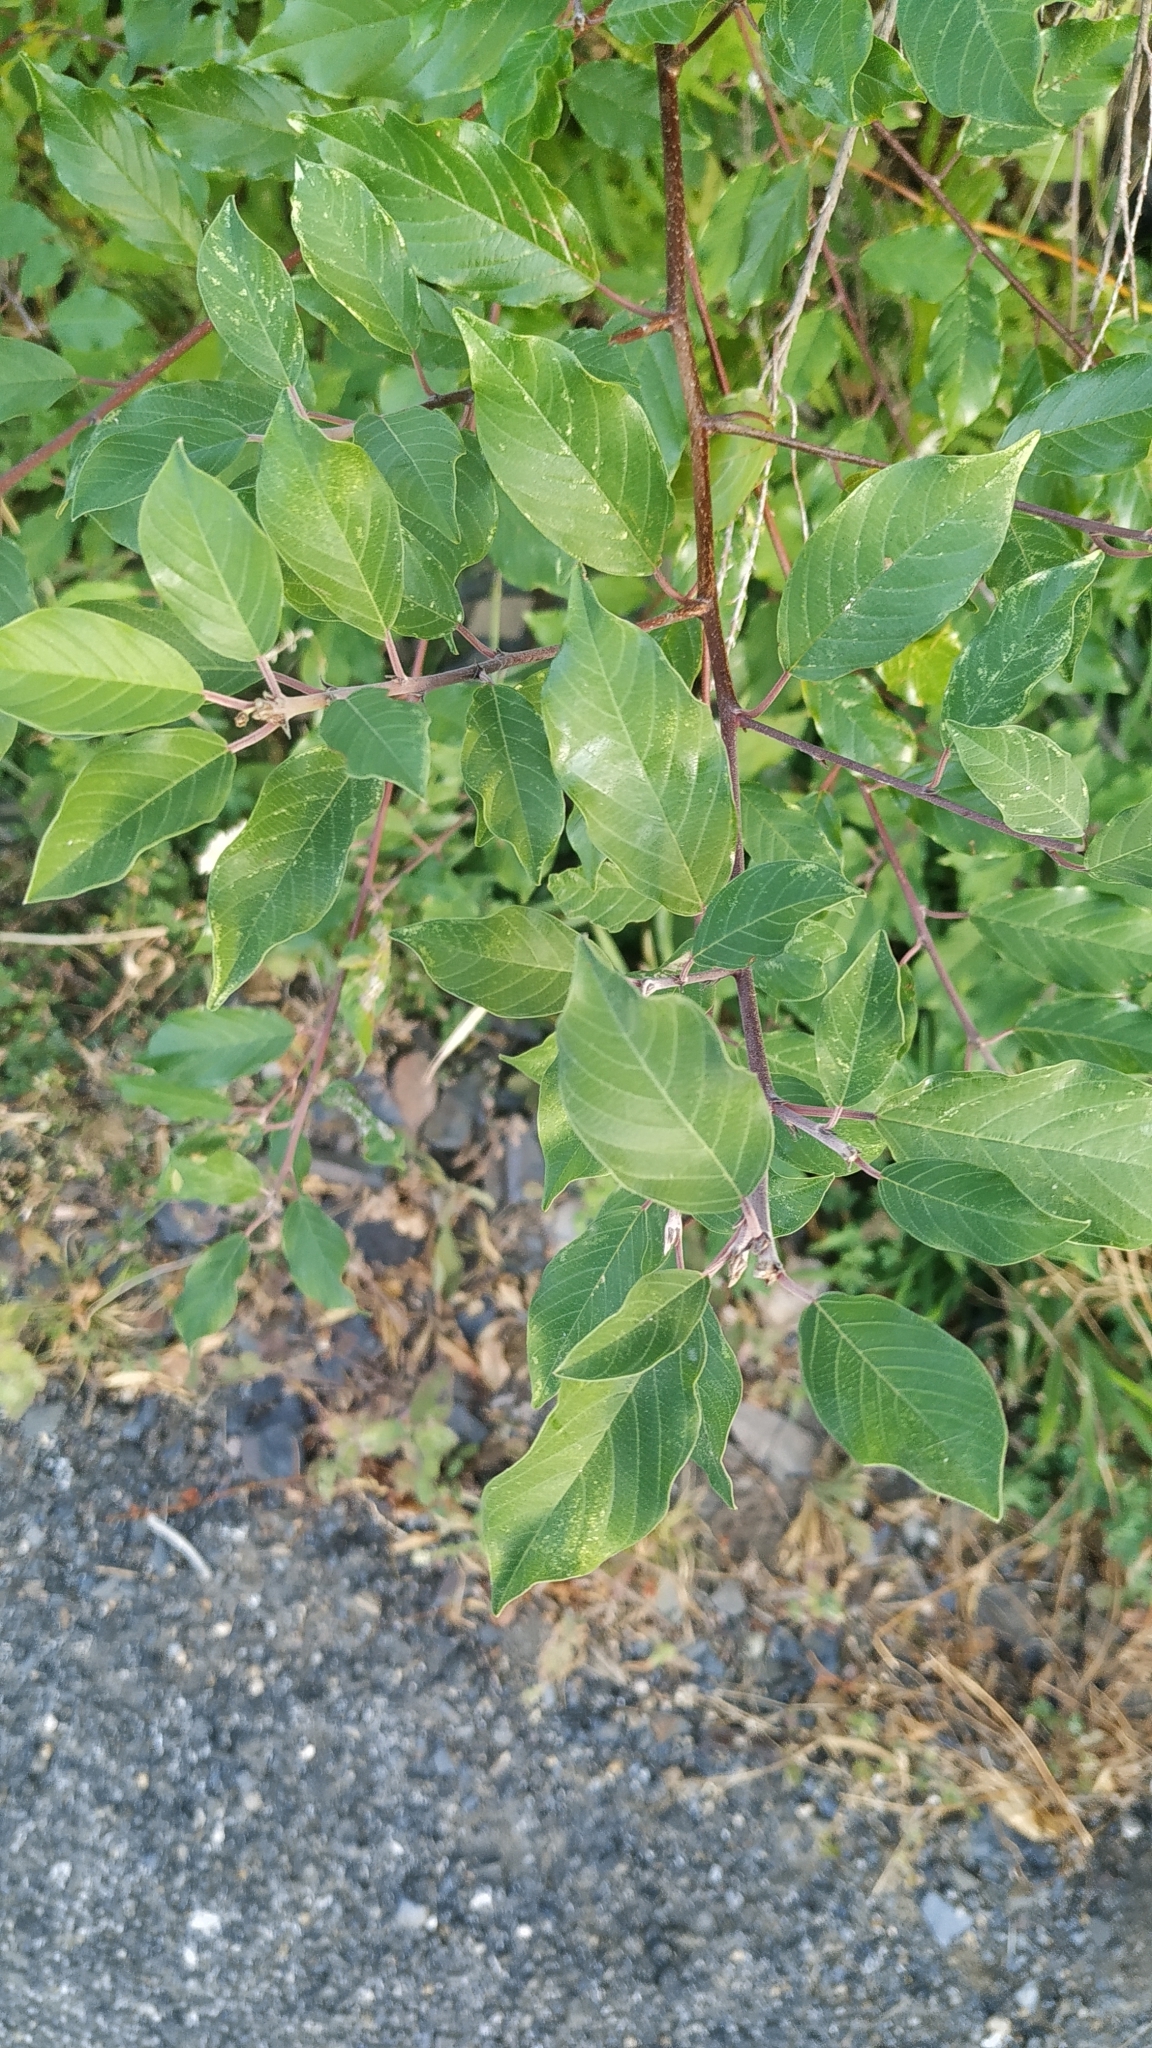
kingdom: Plantae
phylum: Tracheophyta
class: Magnoliopsida
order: Rosales
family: Rhamnaceae
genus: Frangula
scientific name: Frangula alnus
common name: Alder buckthorn
